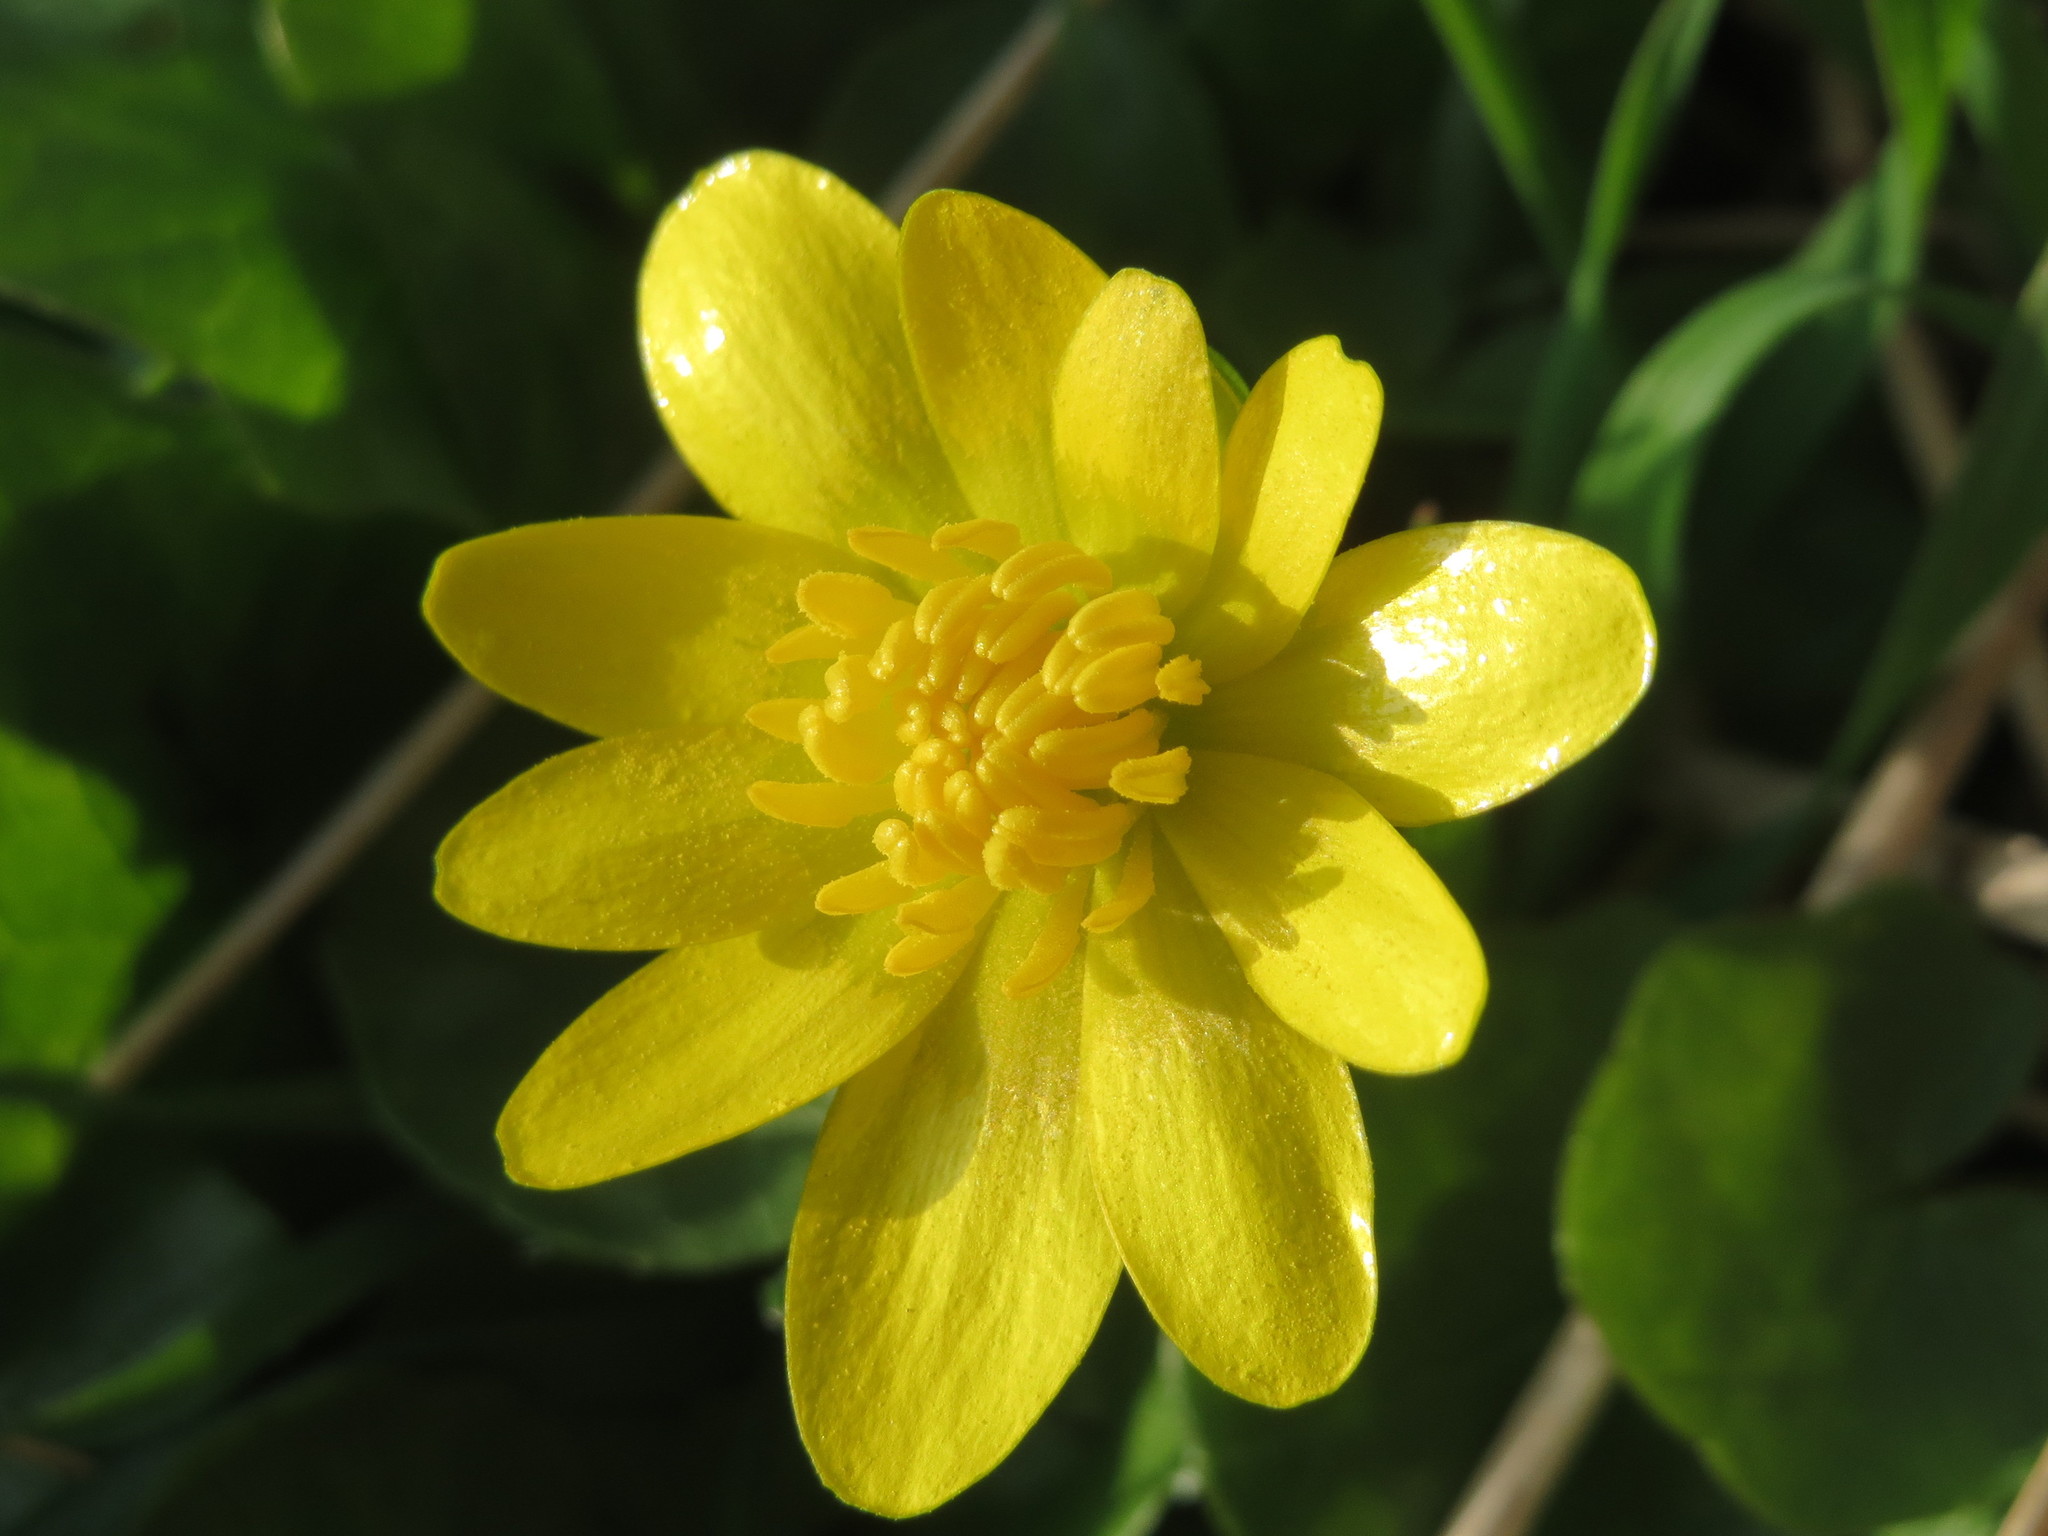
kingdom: Plantae
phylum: Tracheophyta
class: Magnoliopsida
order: Ranunculales
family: Ranunculaceae
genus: Ficaria
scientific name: Ficaria verna
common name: Lesser celandine
